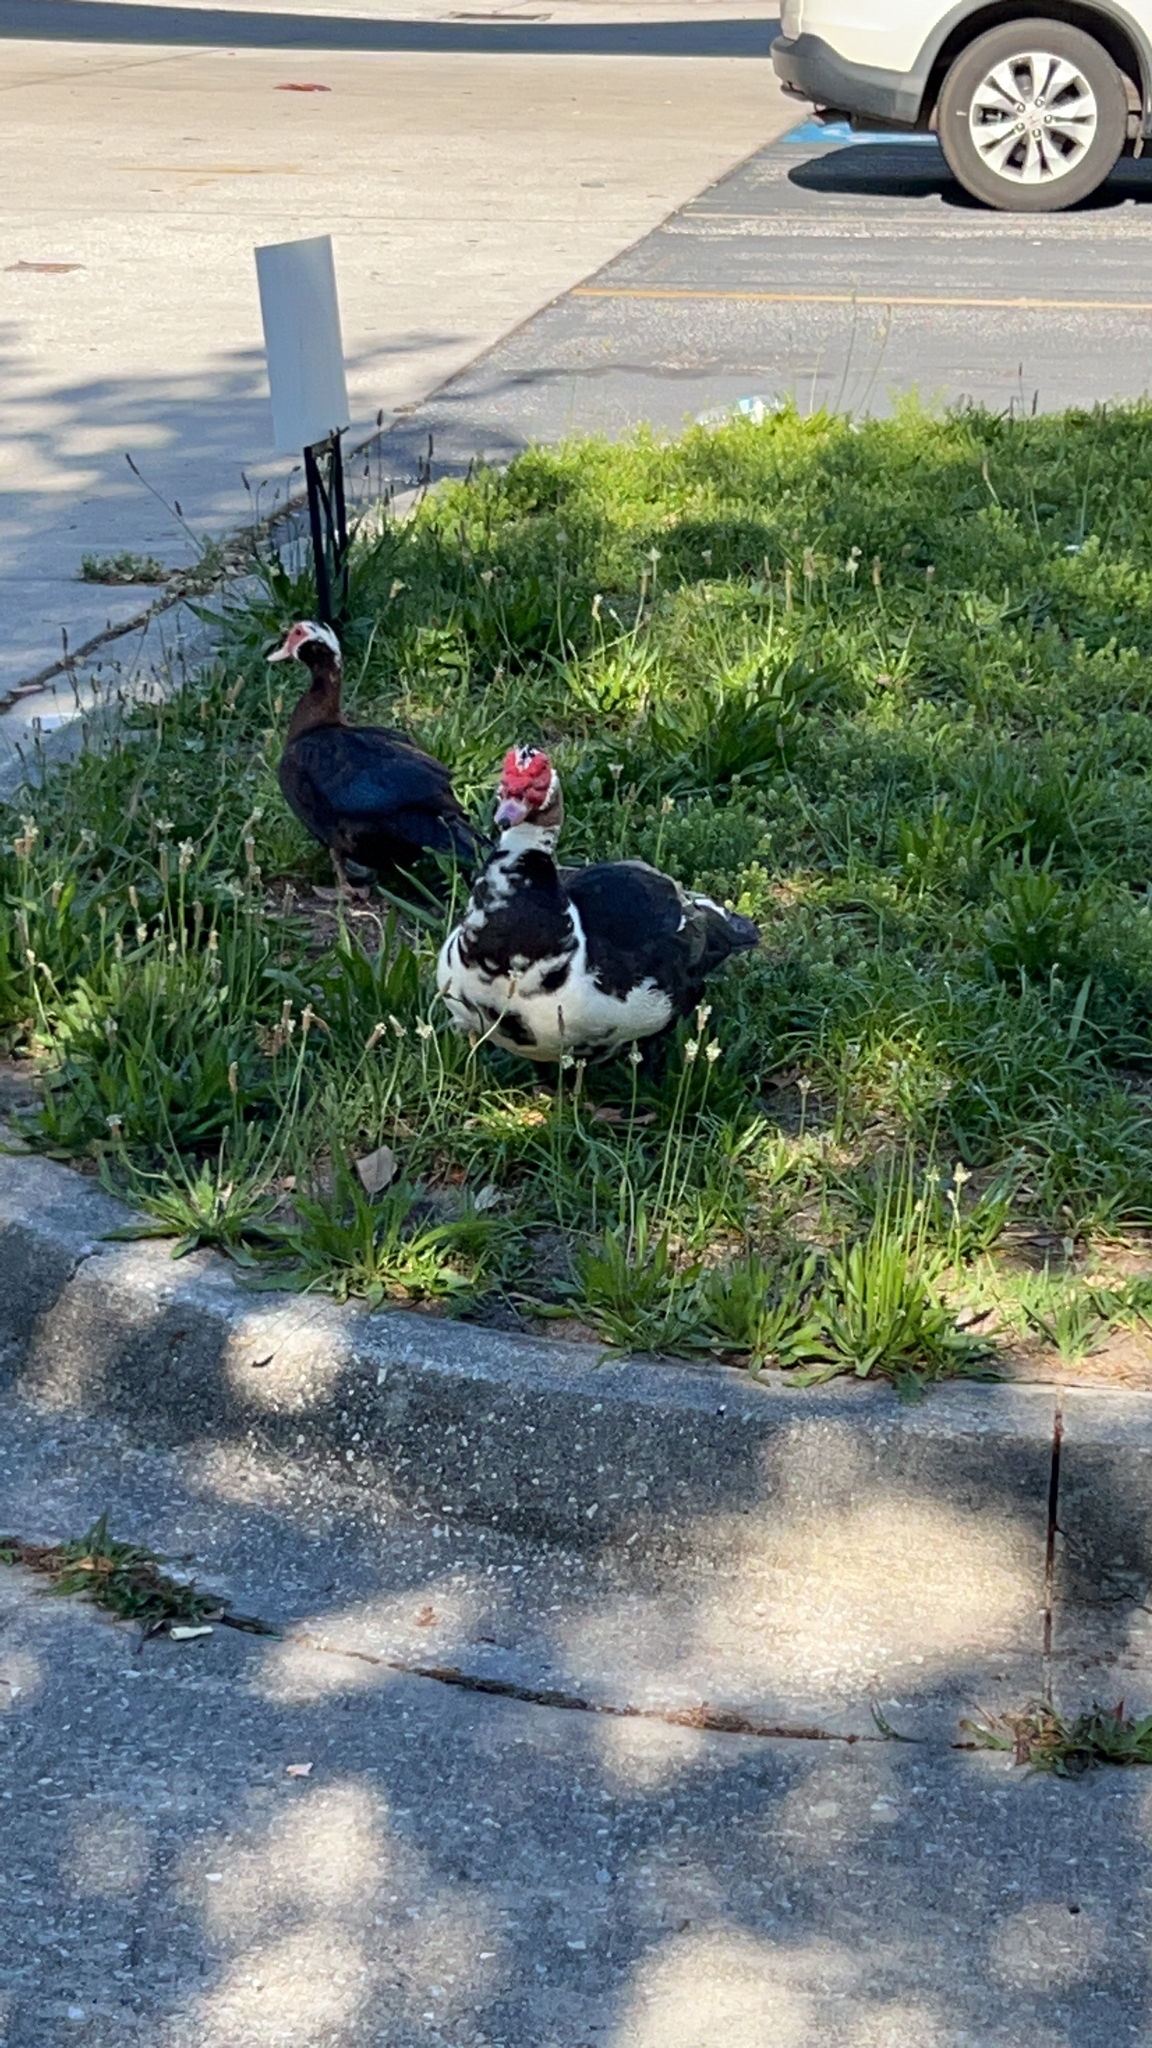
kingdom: Animalia
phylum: Chordata
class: Aves
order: Anseriformes
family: Anatidae
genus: Cairina
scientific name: Cairina moschata
